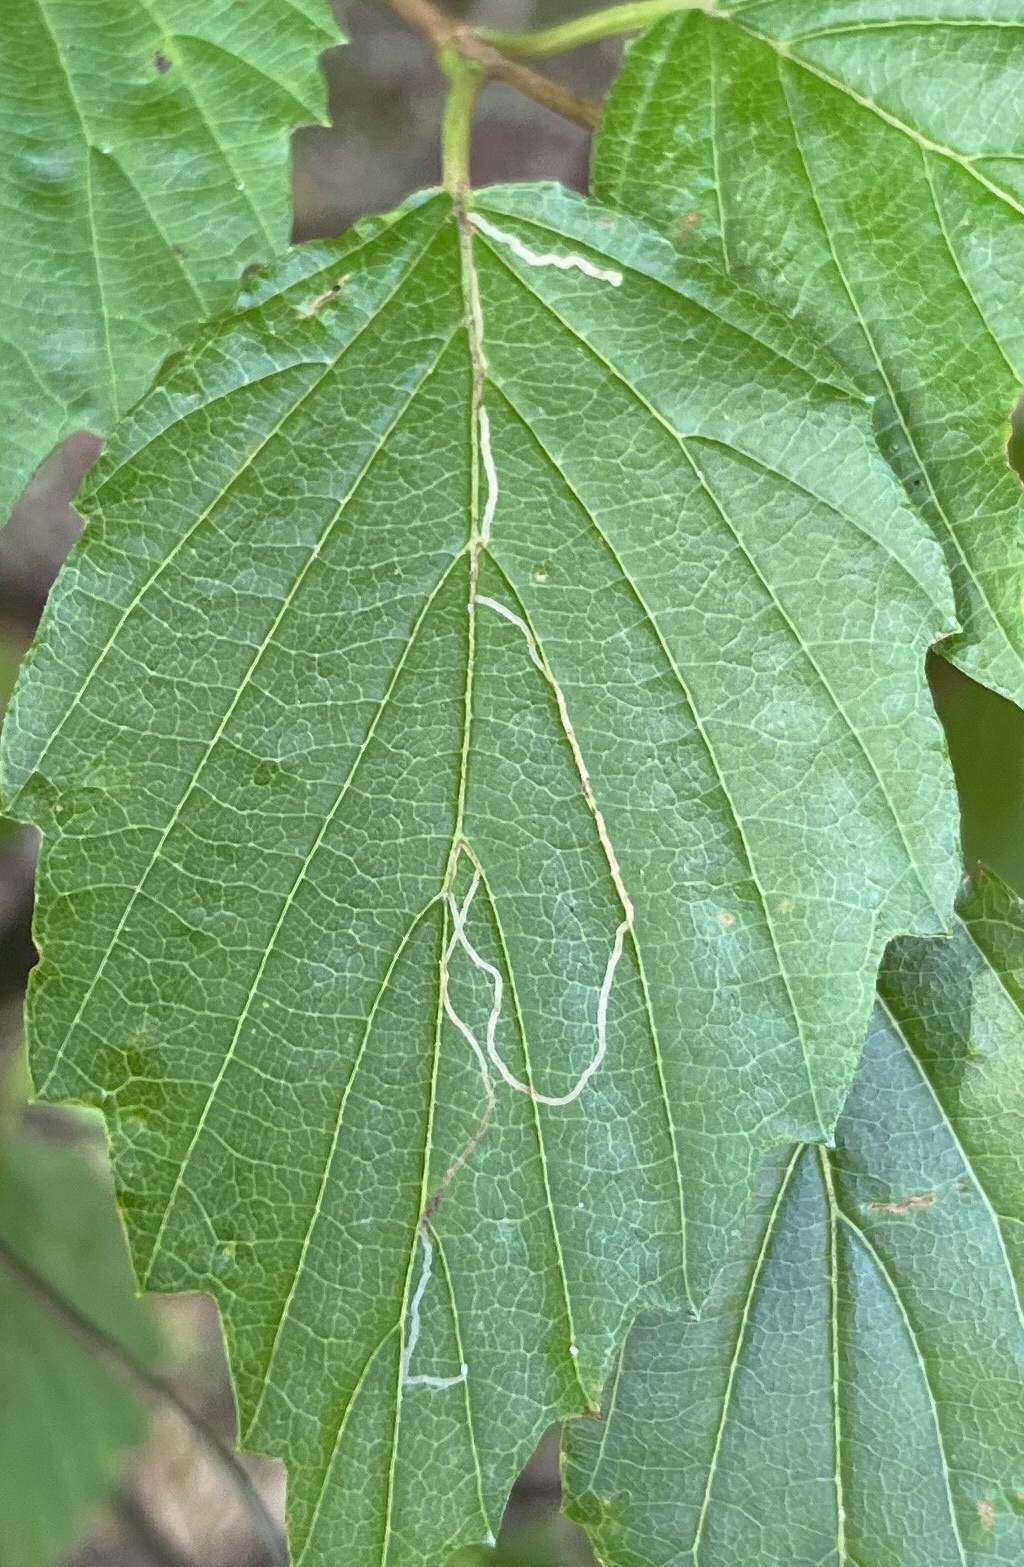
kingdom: Animalia
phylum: Arthropoda
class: Insecta
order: Lepidoptera
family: Gracillariidae
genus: Marmara
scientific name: Marmara viburnella
